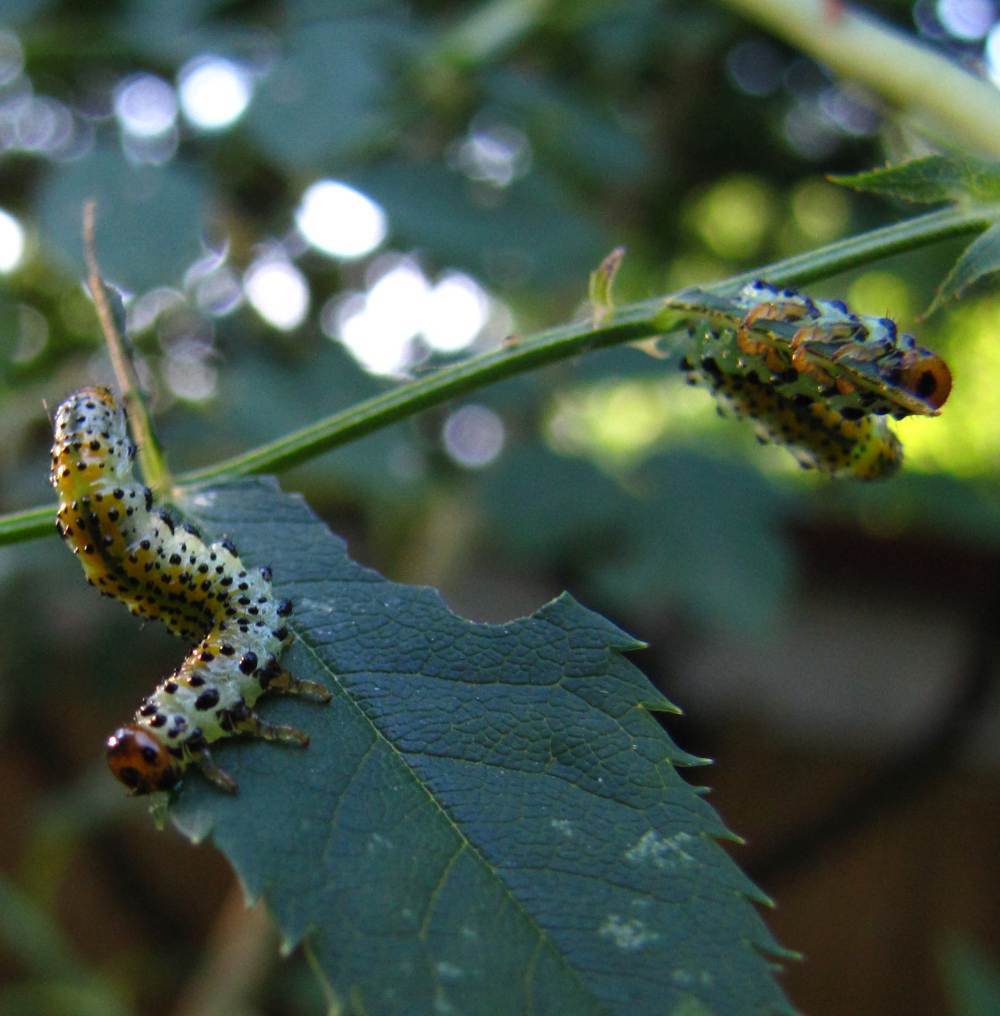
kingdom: Animalia
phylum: Arthropoda
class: Insecta
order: Hymenoptera
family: Argidae
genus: Arge
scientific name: Arge ochropus
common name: Argid sawfly
